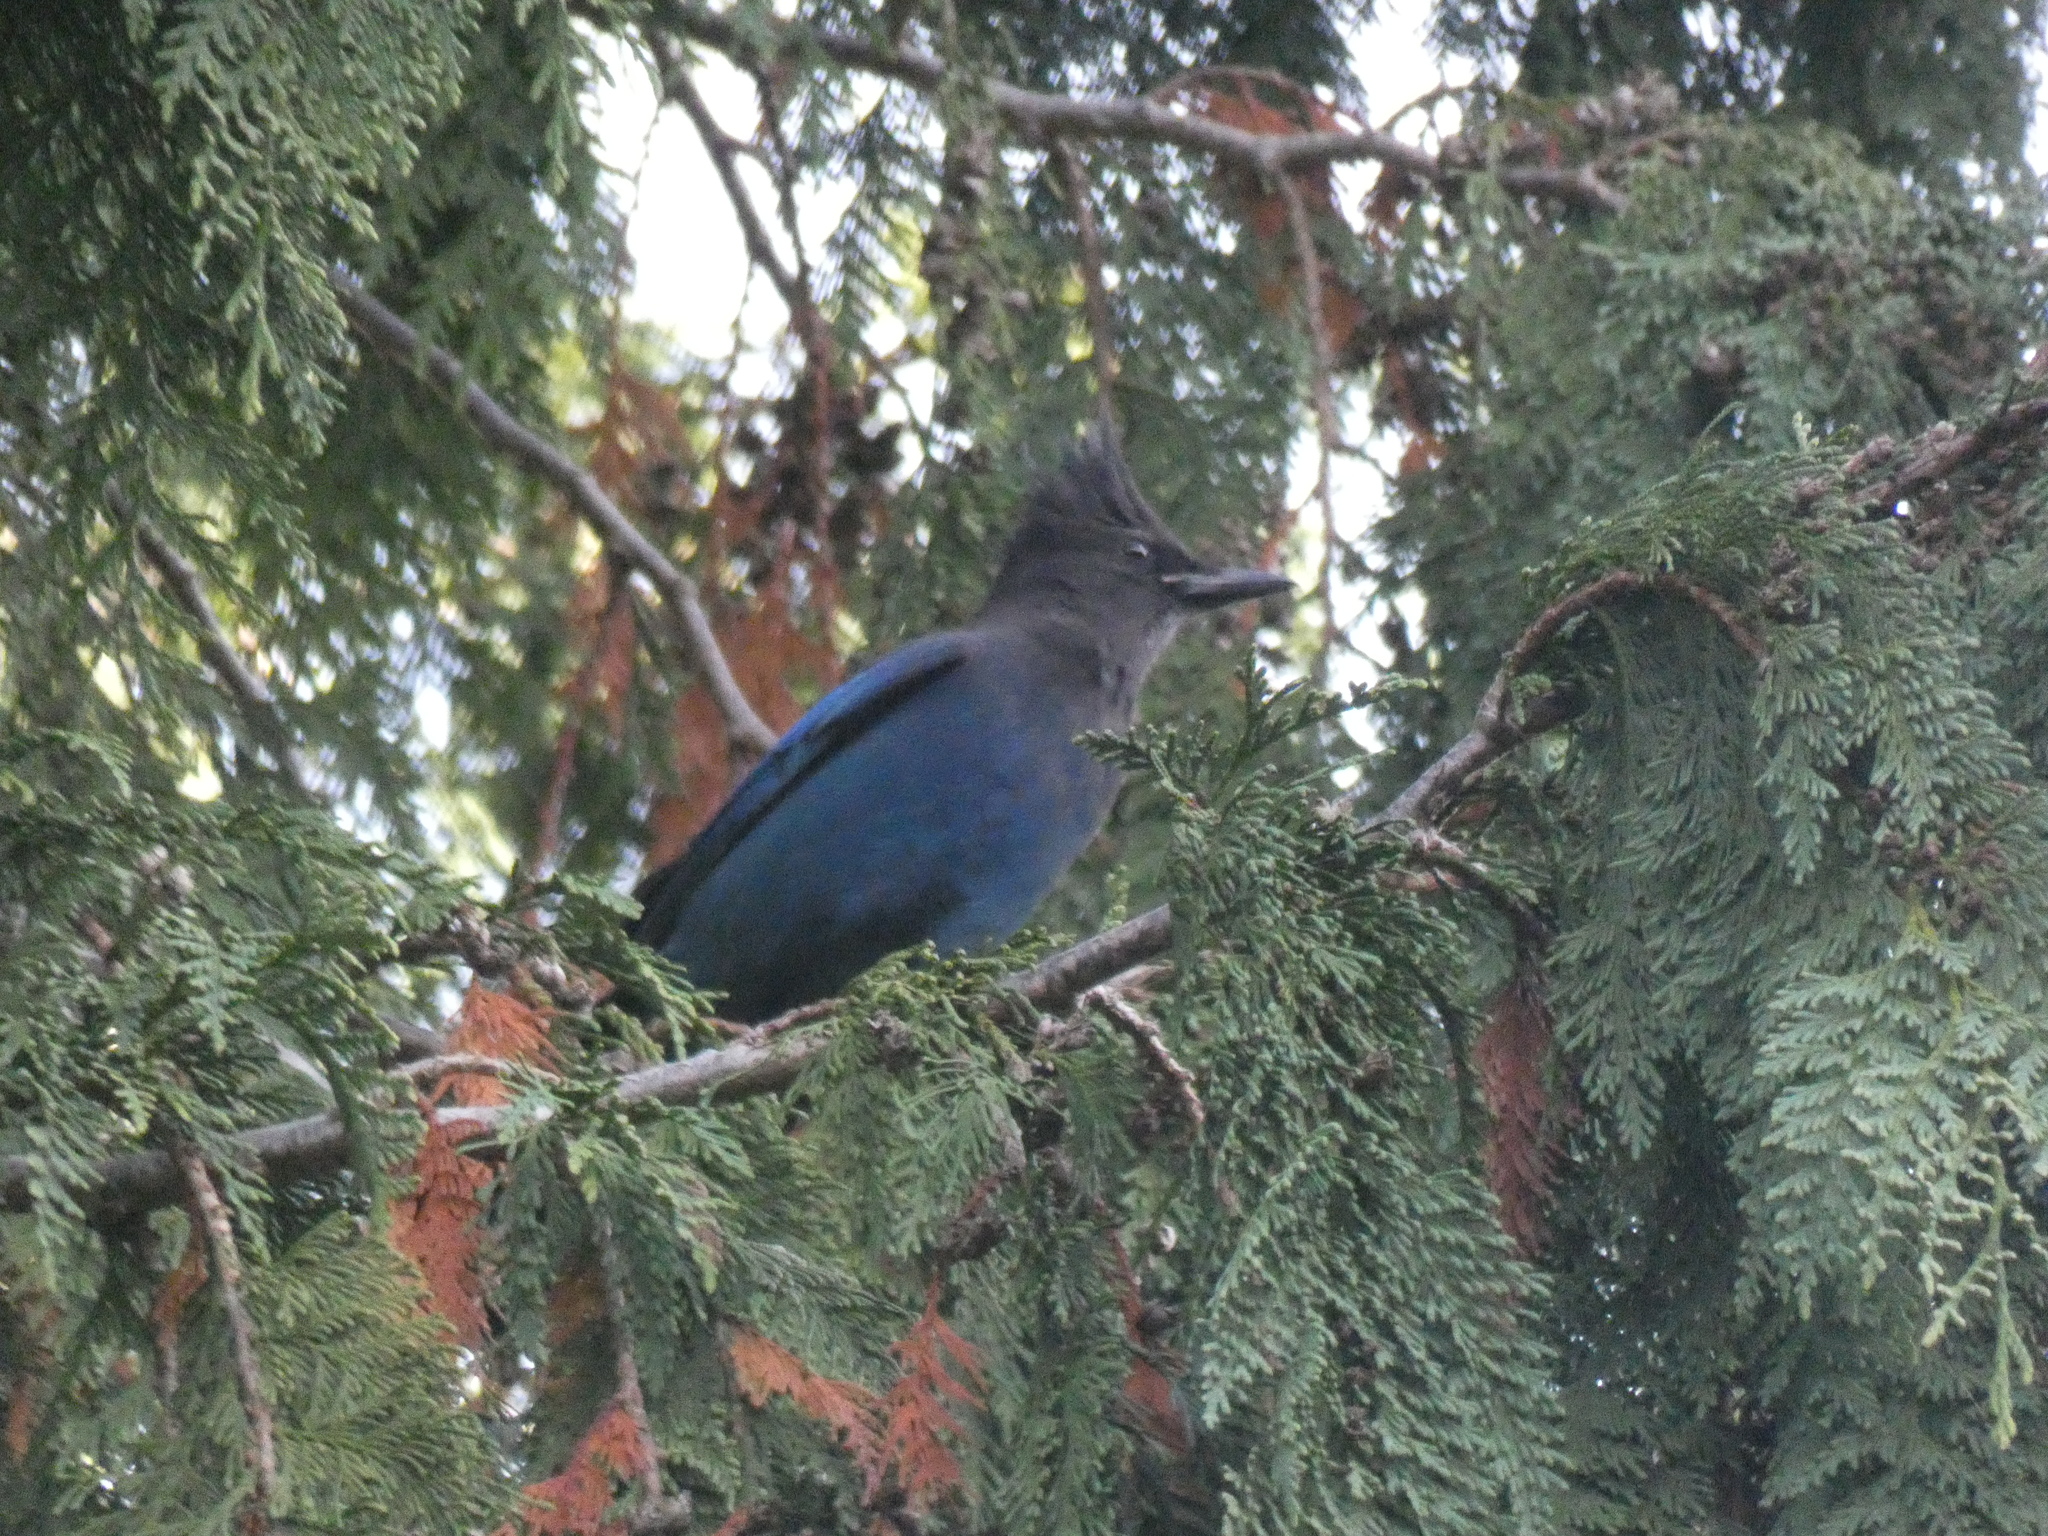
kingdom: Animalia
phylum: Chordata
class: Aves
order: Passeriformes
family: Corvidae
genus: Cyanocitta
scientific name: Cyanocitta stelleri
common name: Steller's jay
